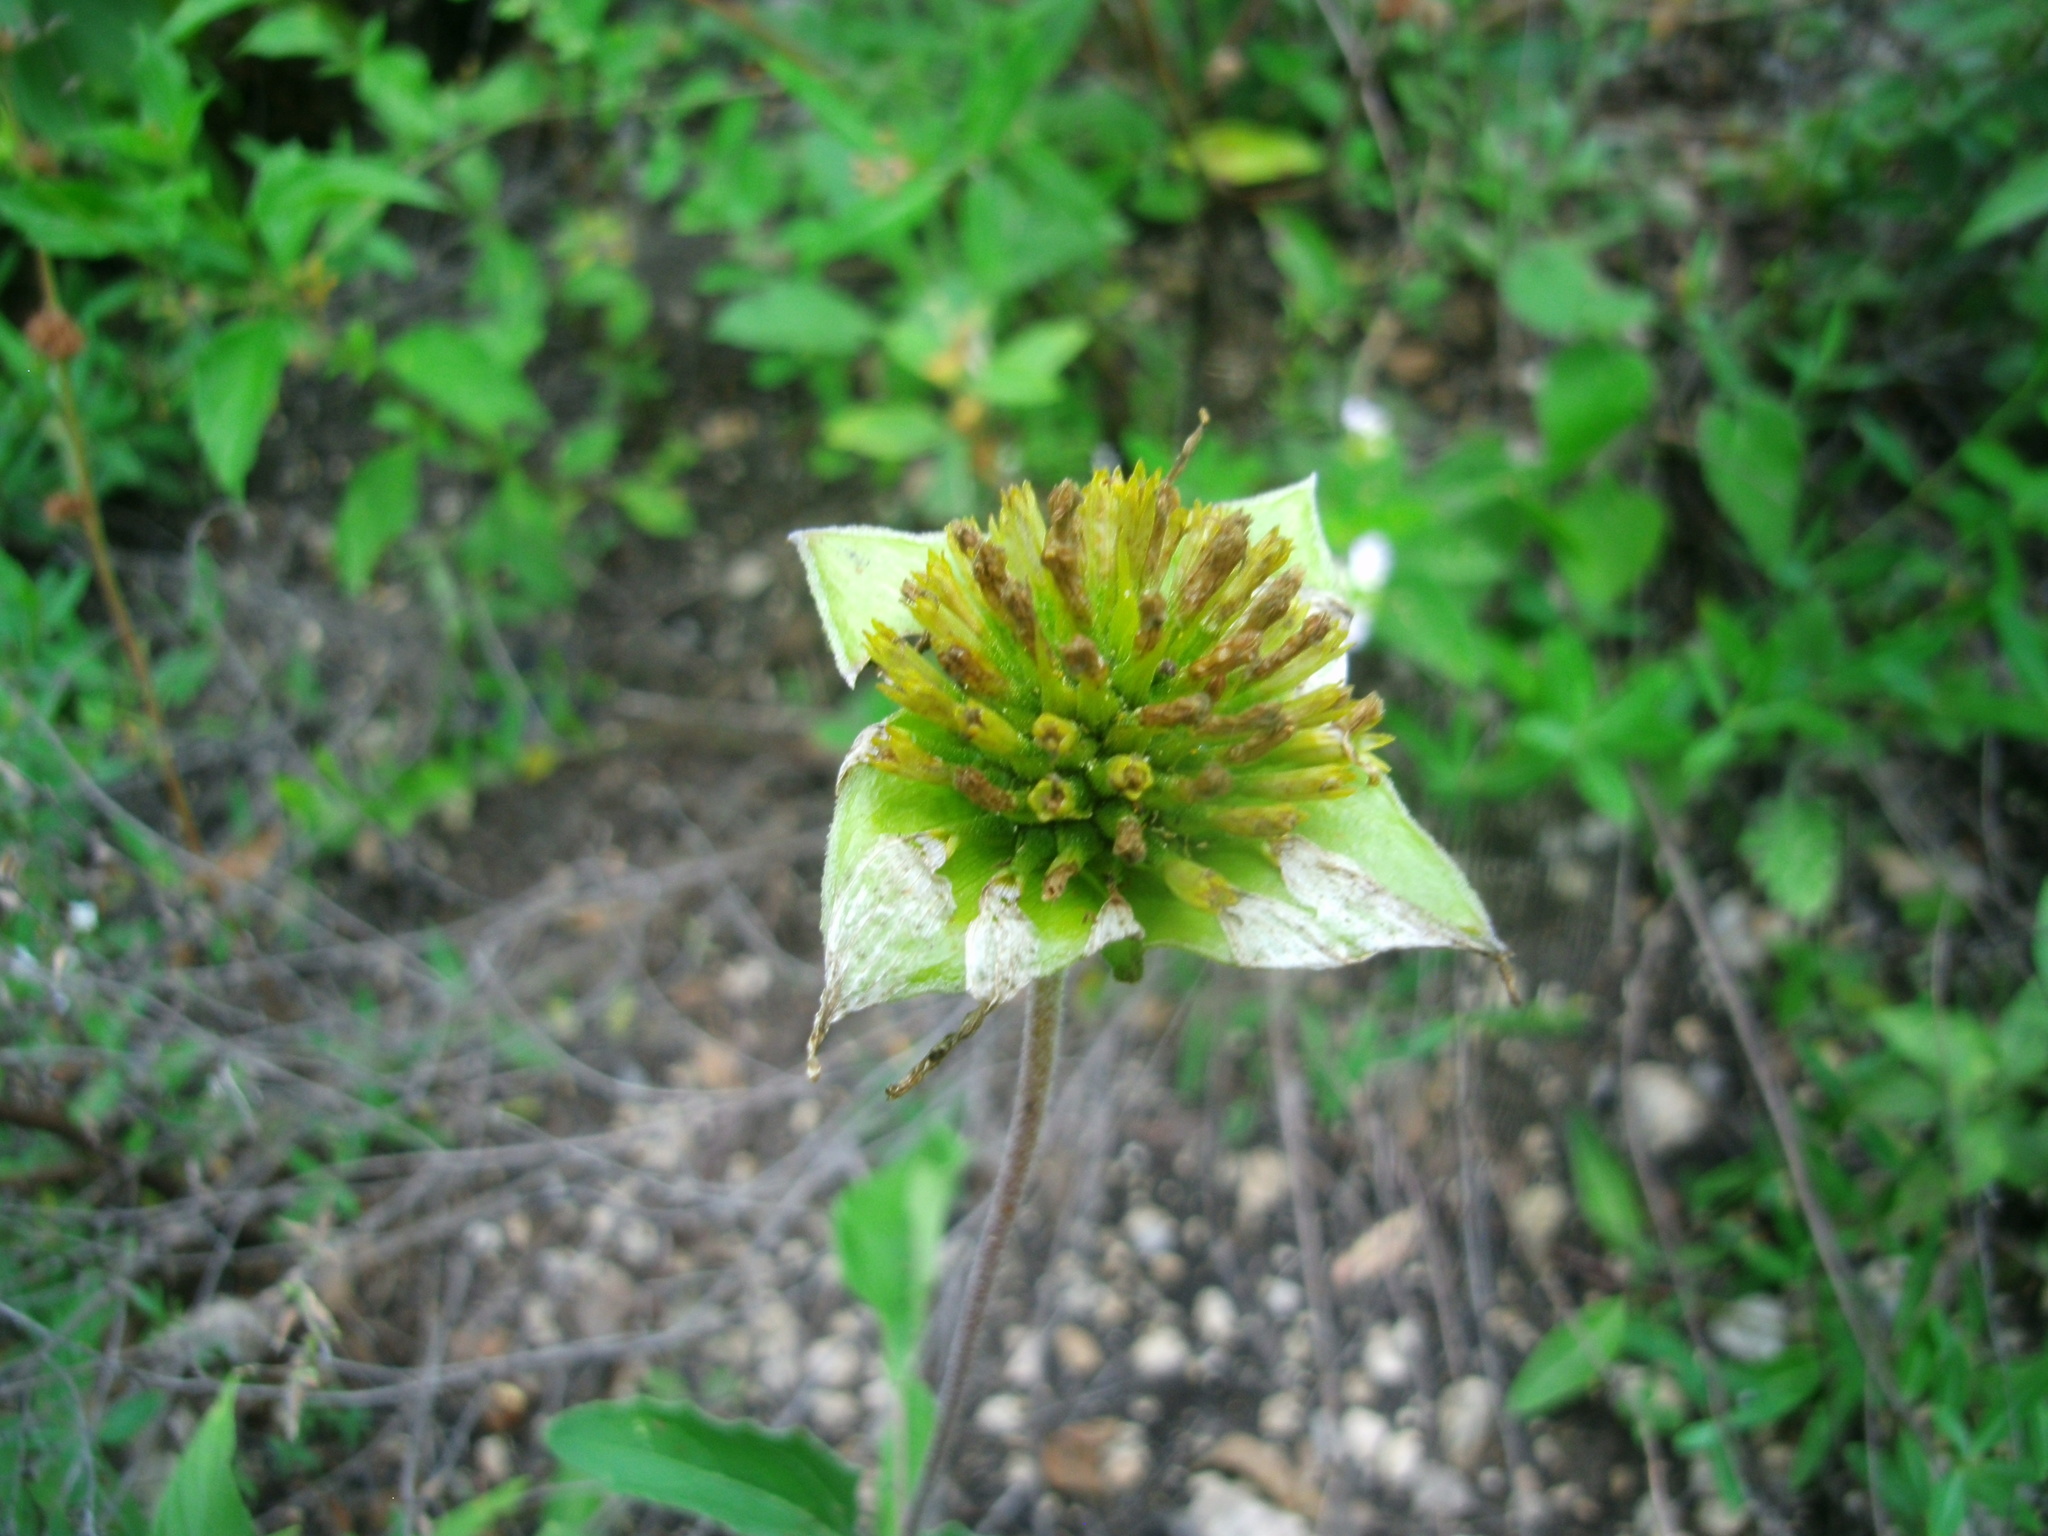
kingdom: Plantae
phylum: Tracheophyta
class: Magnoliopsida
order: Asterales
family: Asteraceae
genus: Tetragonotheca
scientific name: Tetragonotheca texana
